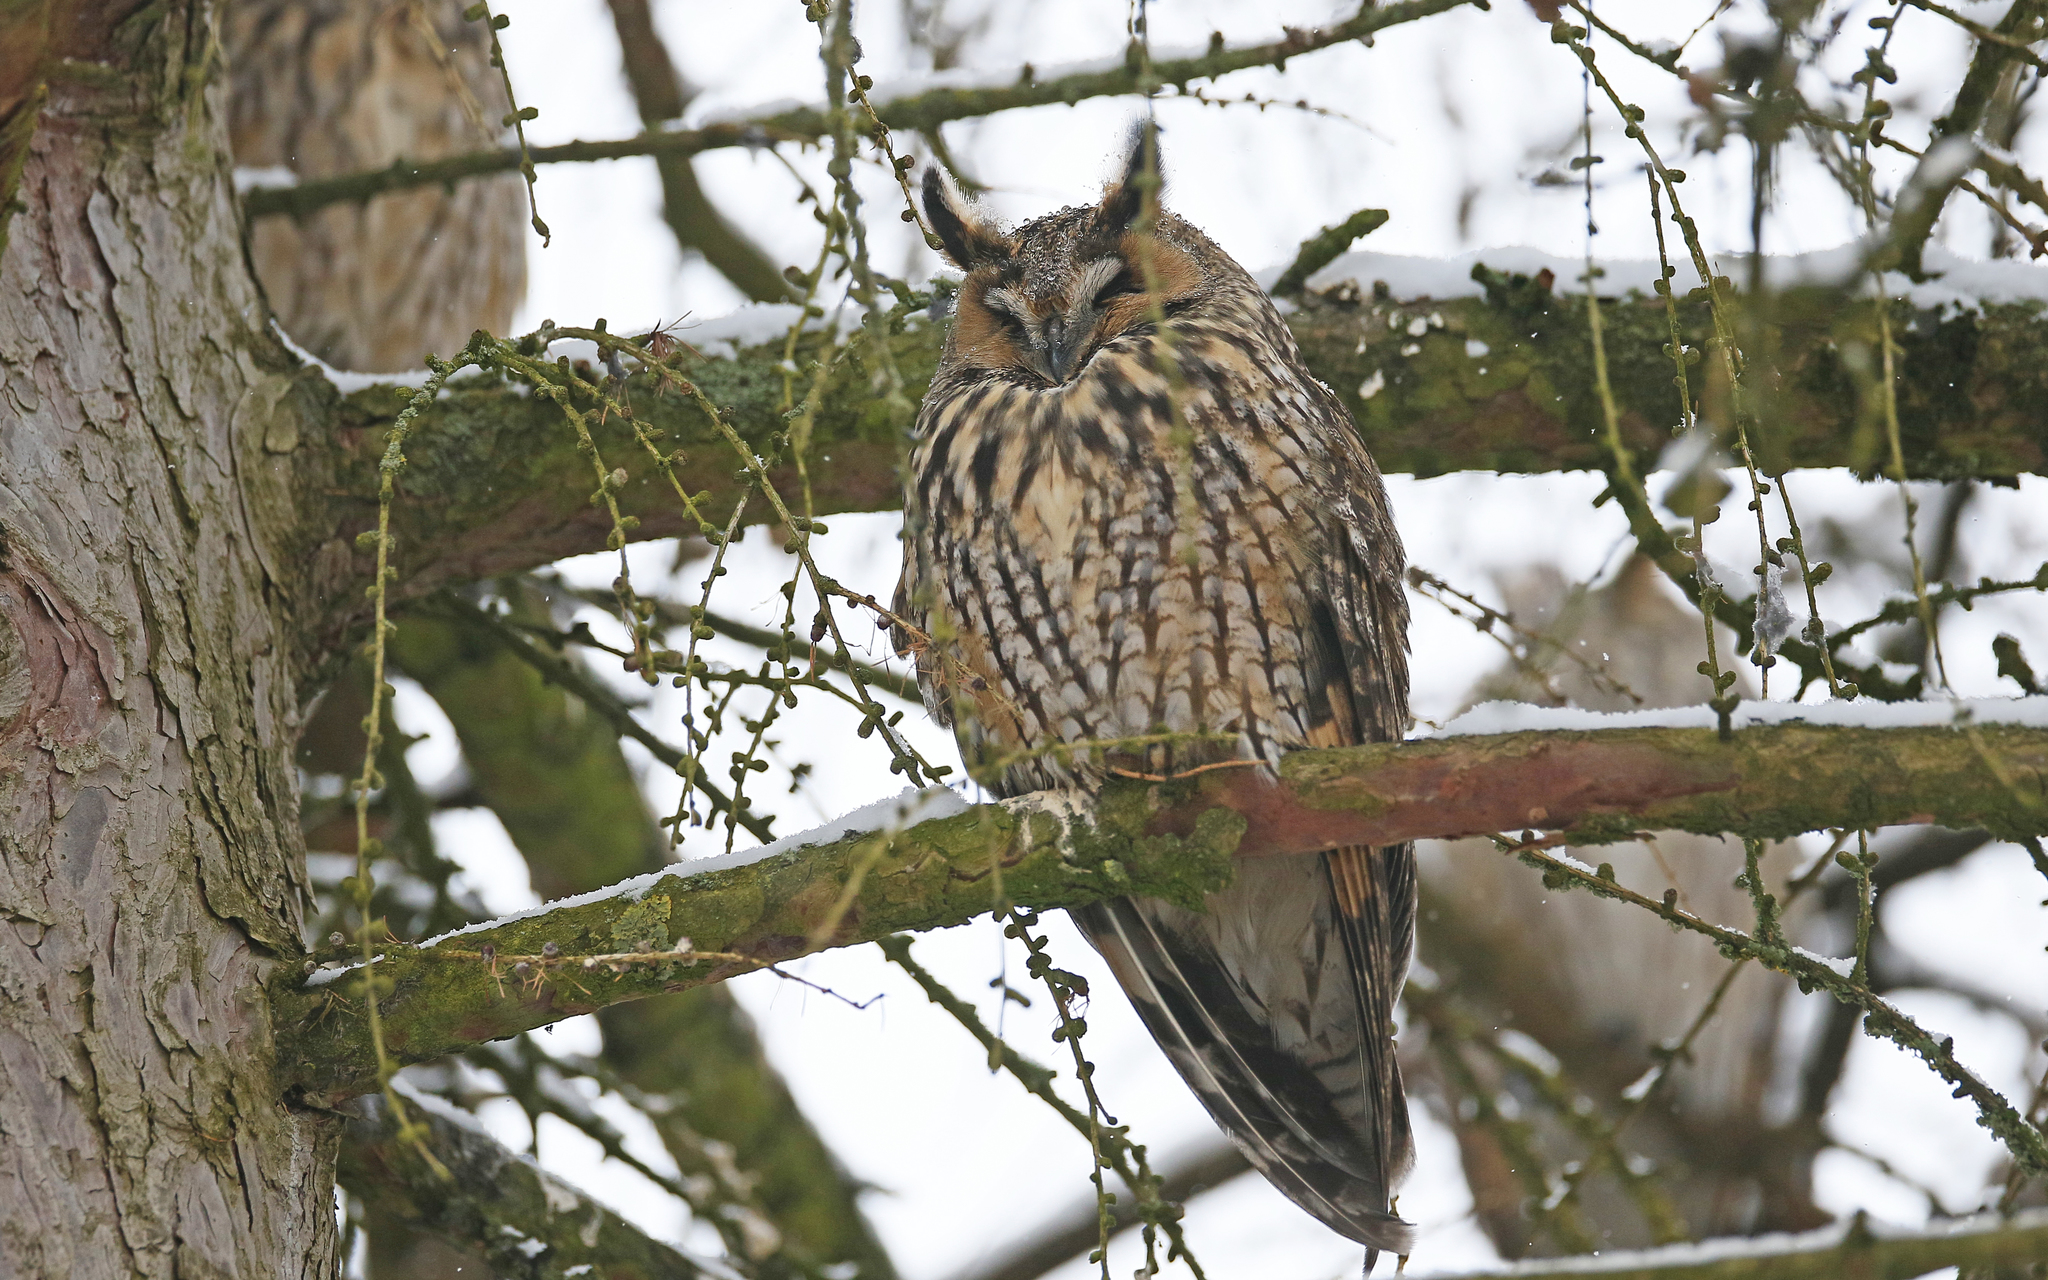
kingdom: Animalia
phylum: Chordata
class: Aves
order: Strigiformes
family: Strigidae
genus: Asio
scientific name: Asio otus
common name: Long-eared owl
